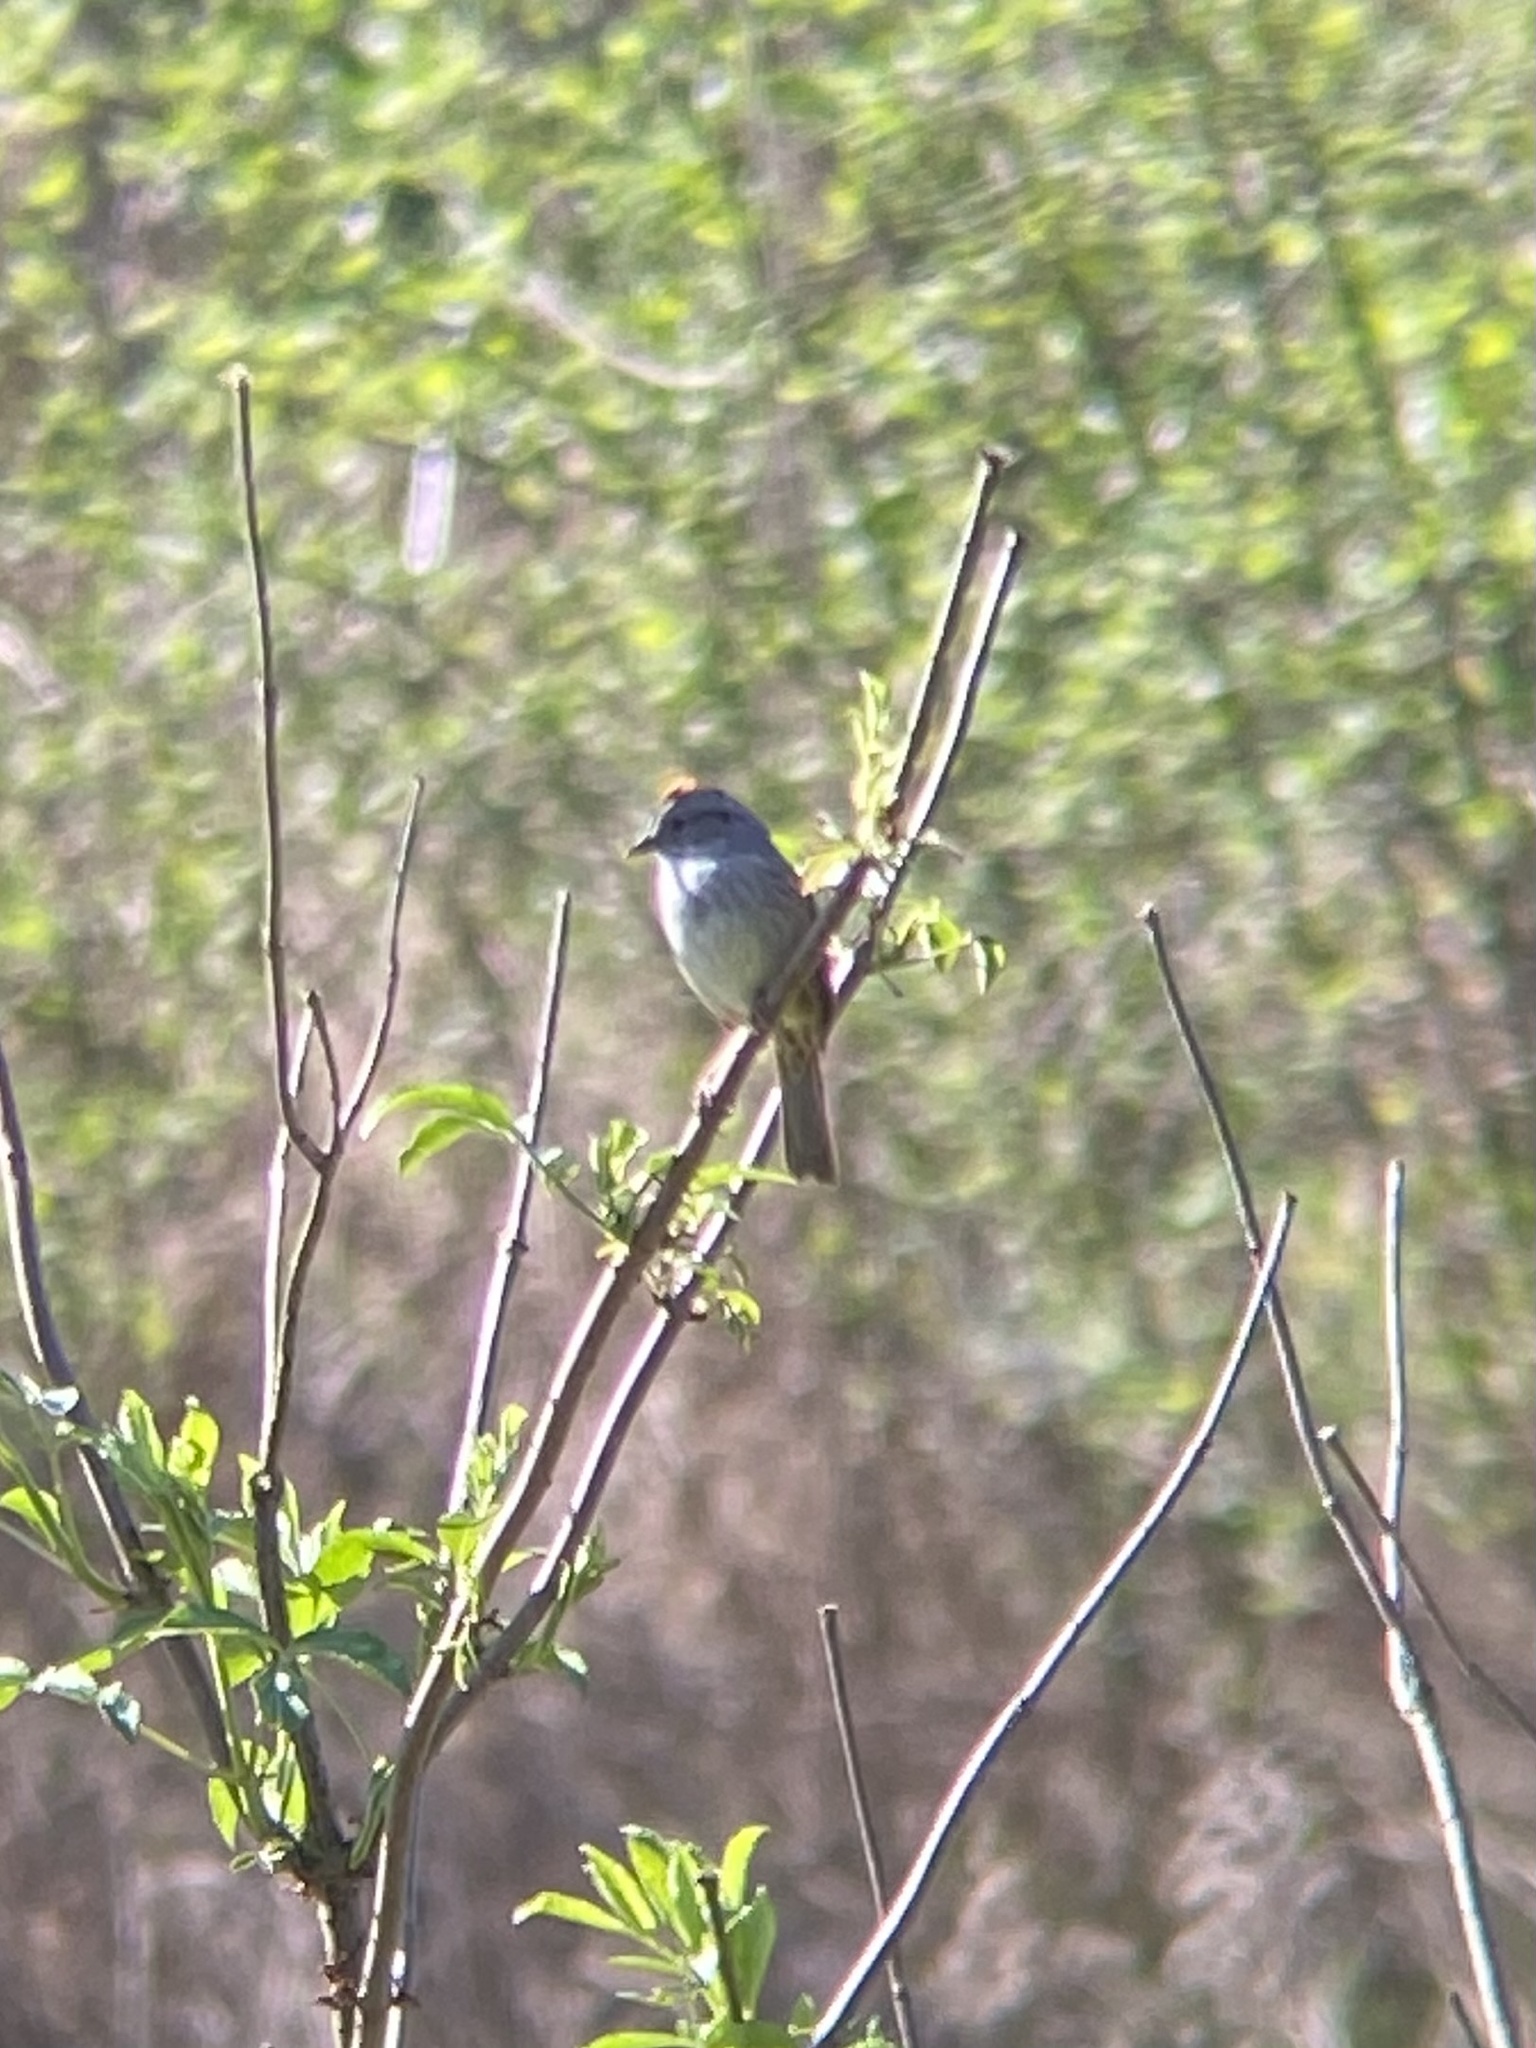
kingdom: Animalia
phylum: Chordata
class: Aves
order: Passeriformes
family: Passerellidae
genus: Melospiza
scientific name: Melospiza georgiana
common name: Swamp sparrow
